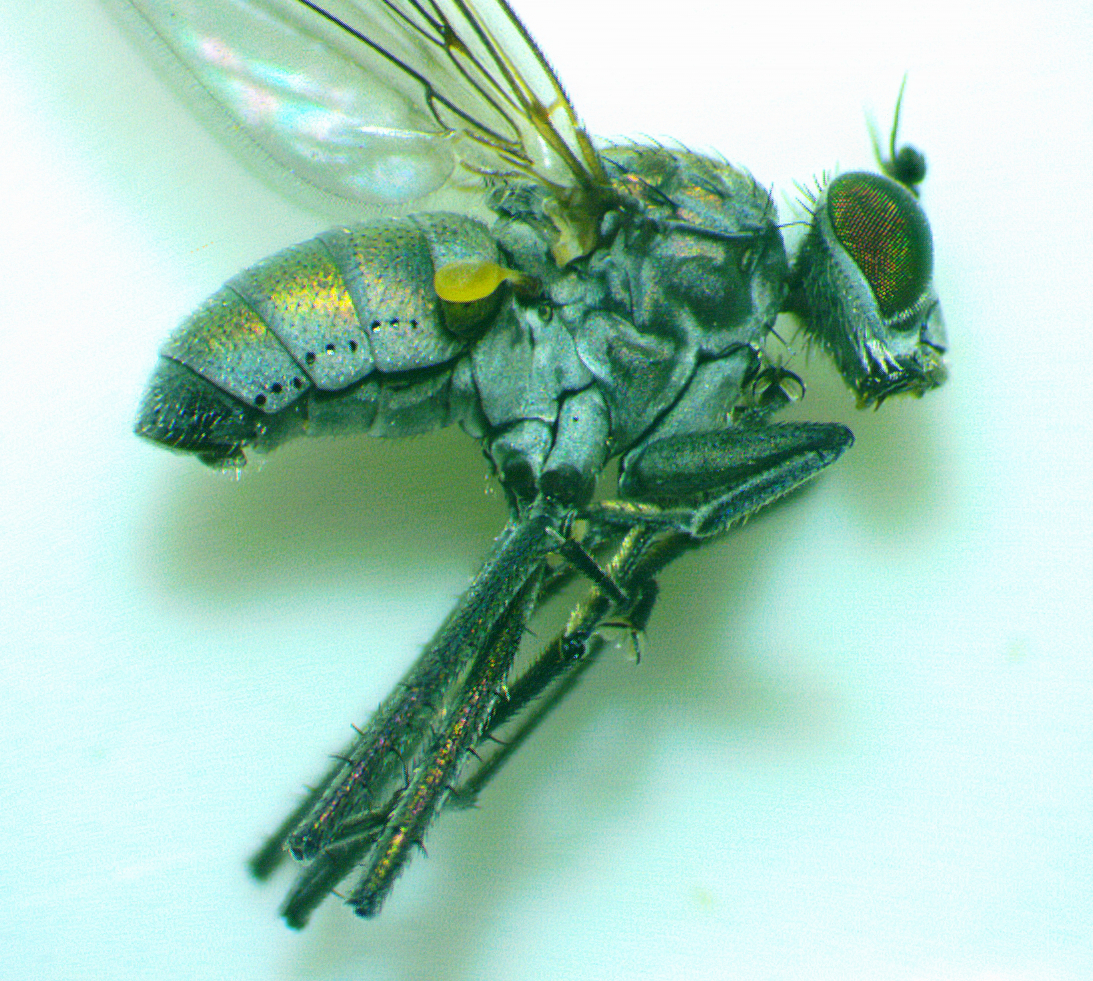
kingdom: Animalia
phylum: Arthropoda
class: Insecta
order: Diptera
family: Dolichopodidae
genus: Hydatostega
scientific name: Hydatostega viridiflos
